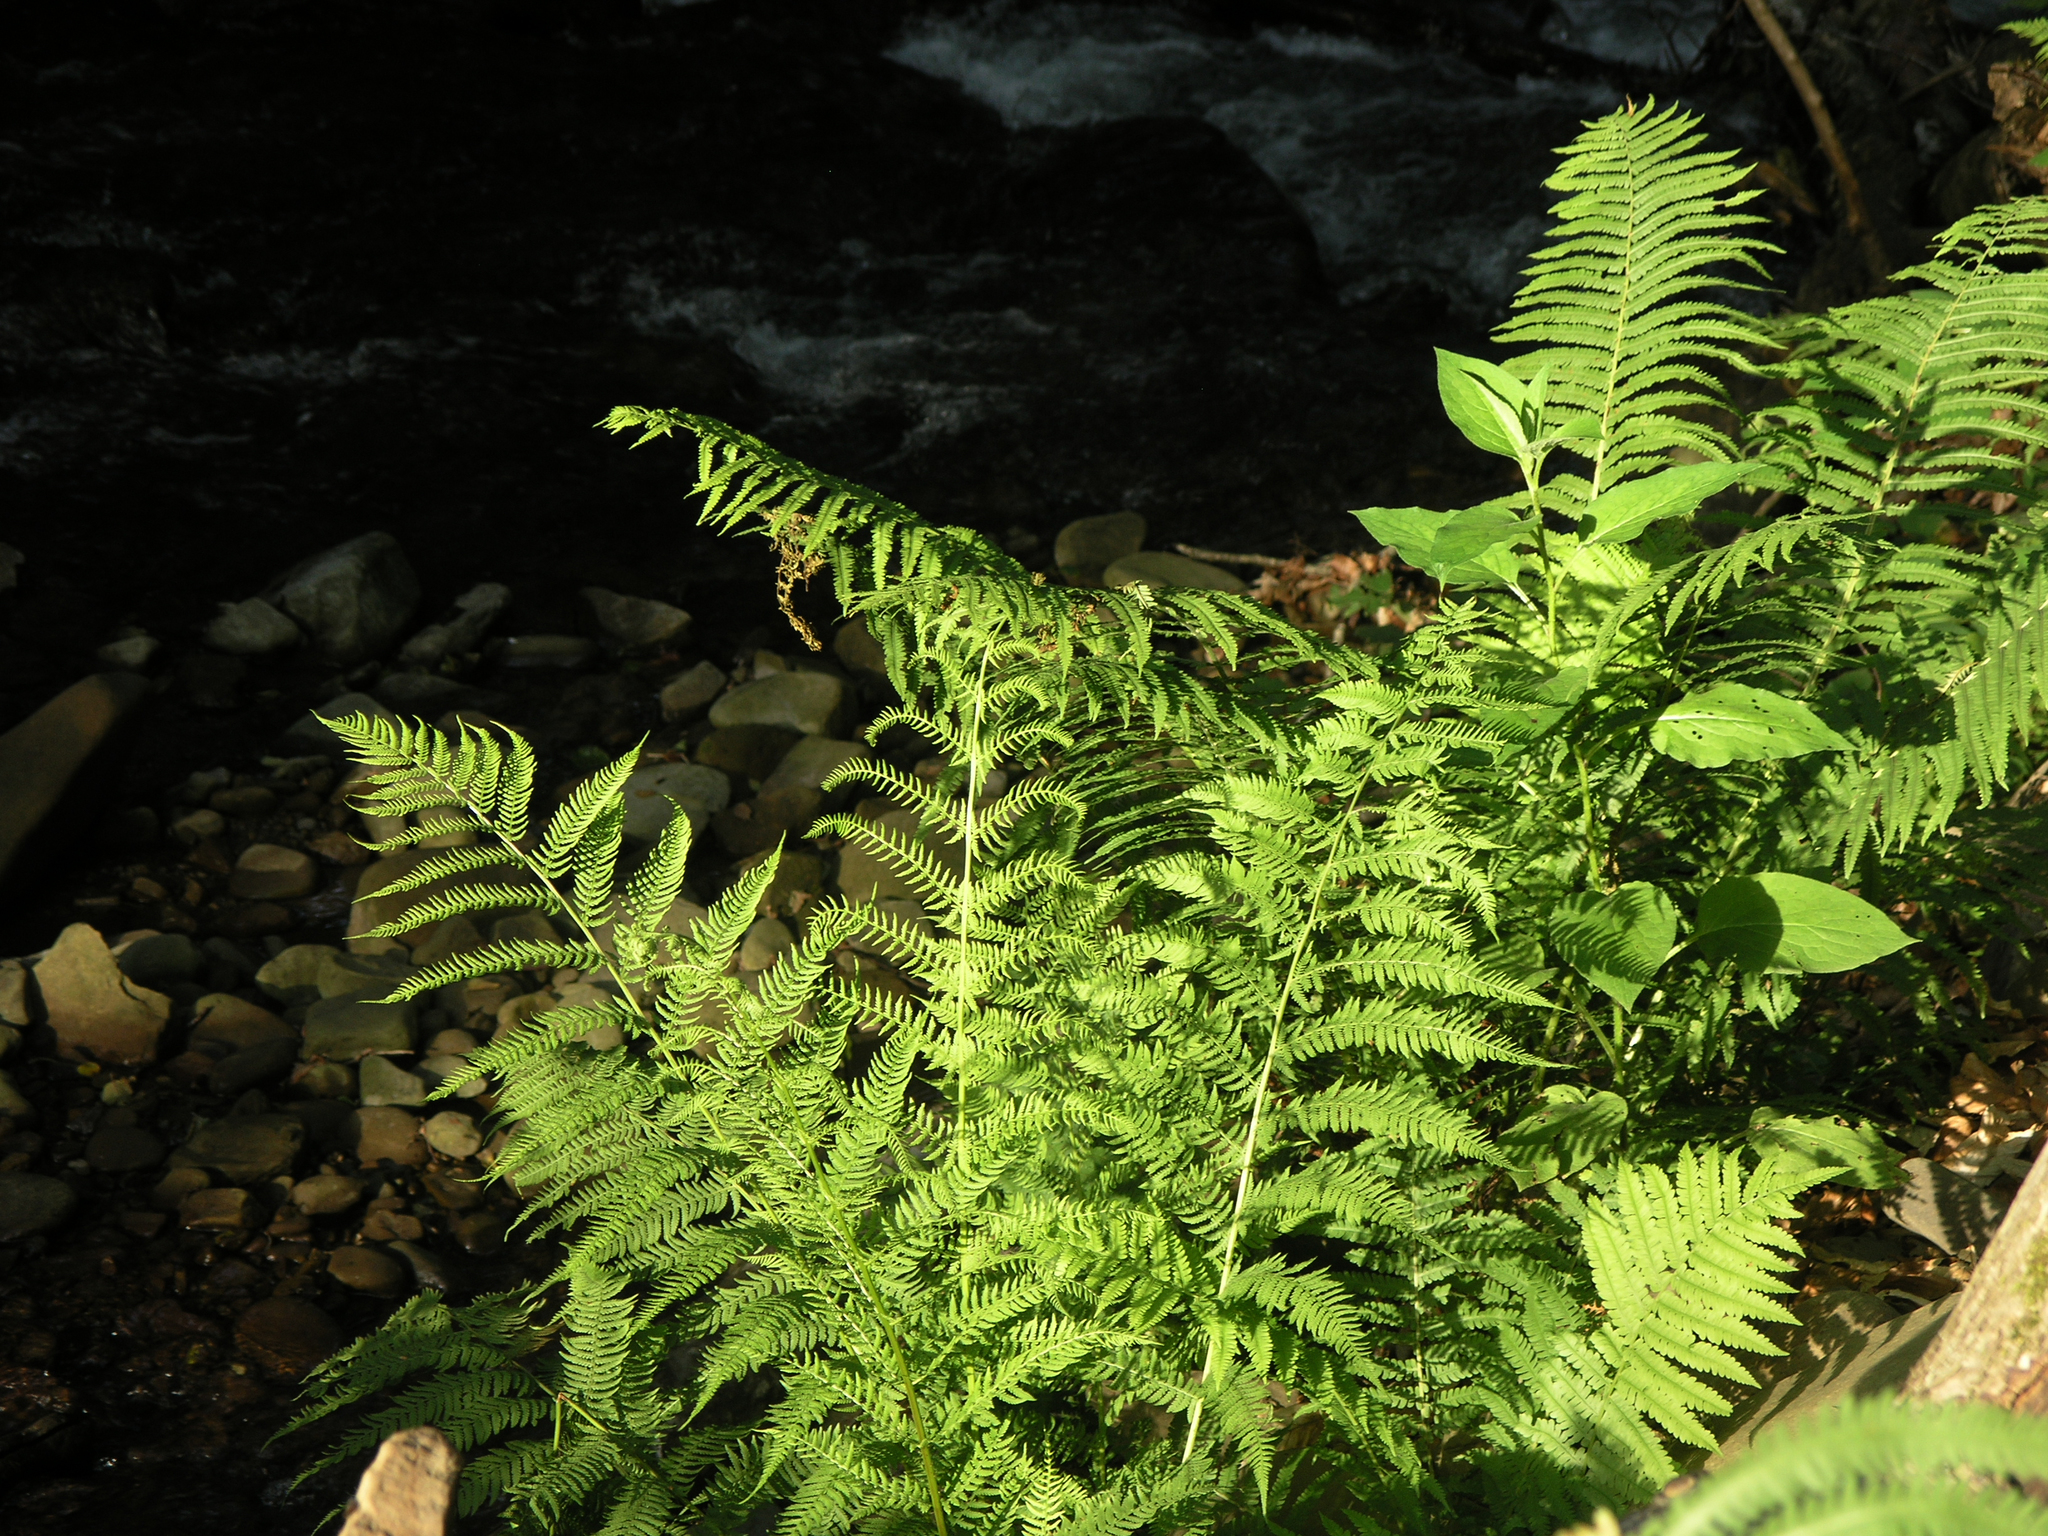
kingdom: Plantae
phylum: Tracheophyta
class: Polypodiopsida
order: Polypodiales
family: Athyriaceae
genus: Athyrium
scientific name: Athyrium filix-femina
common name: Lady fern
